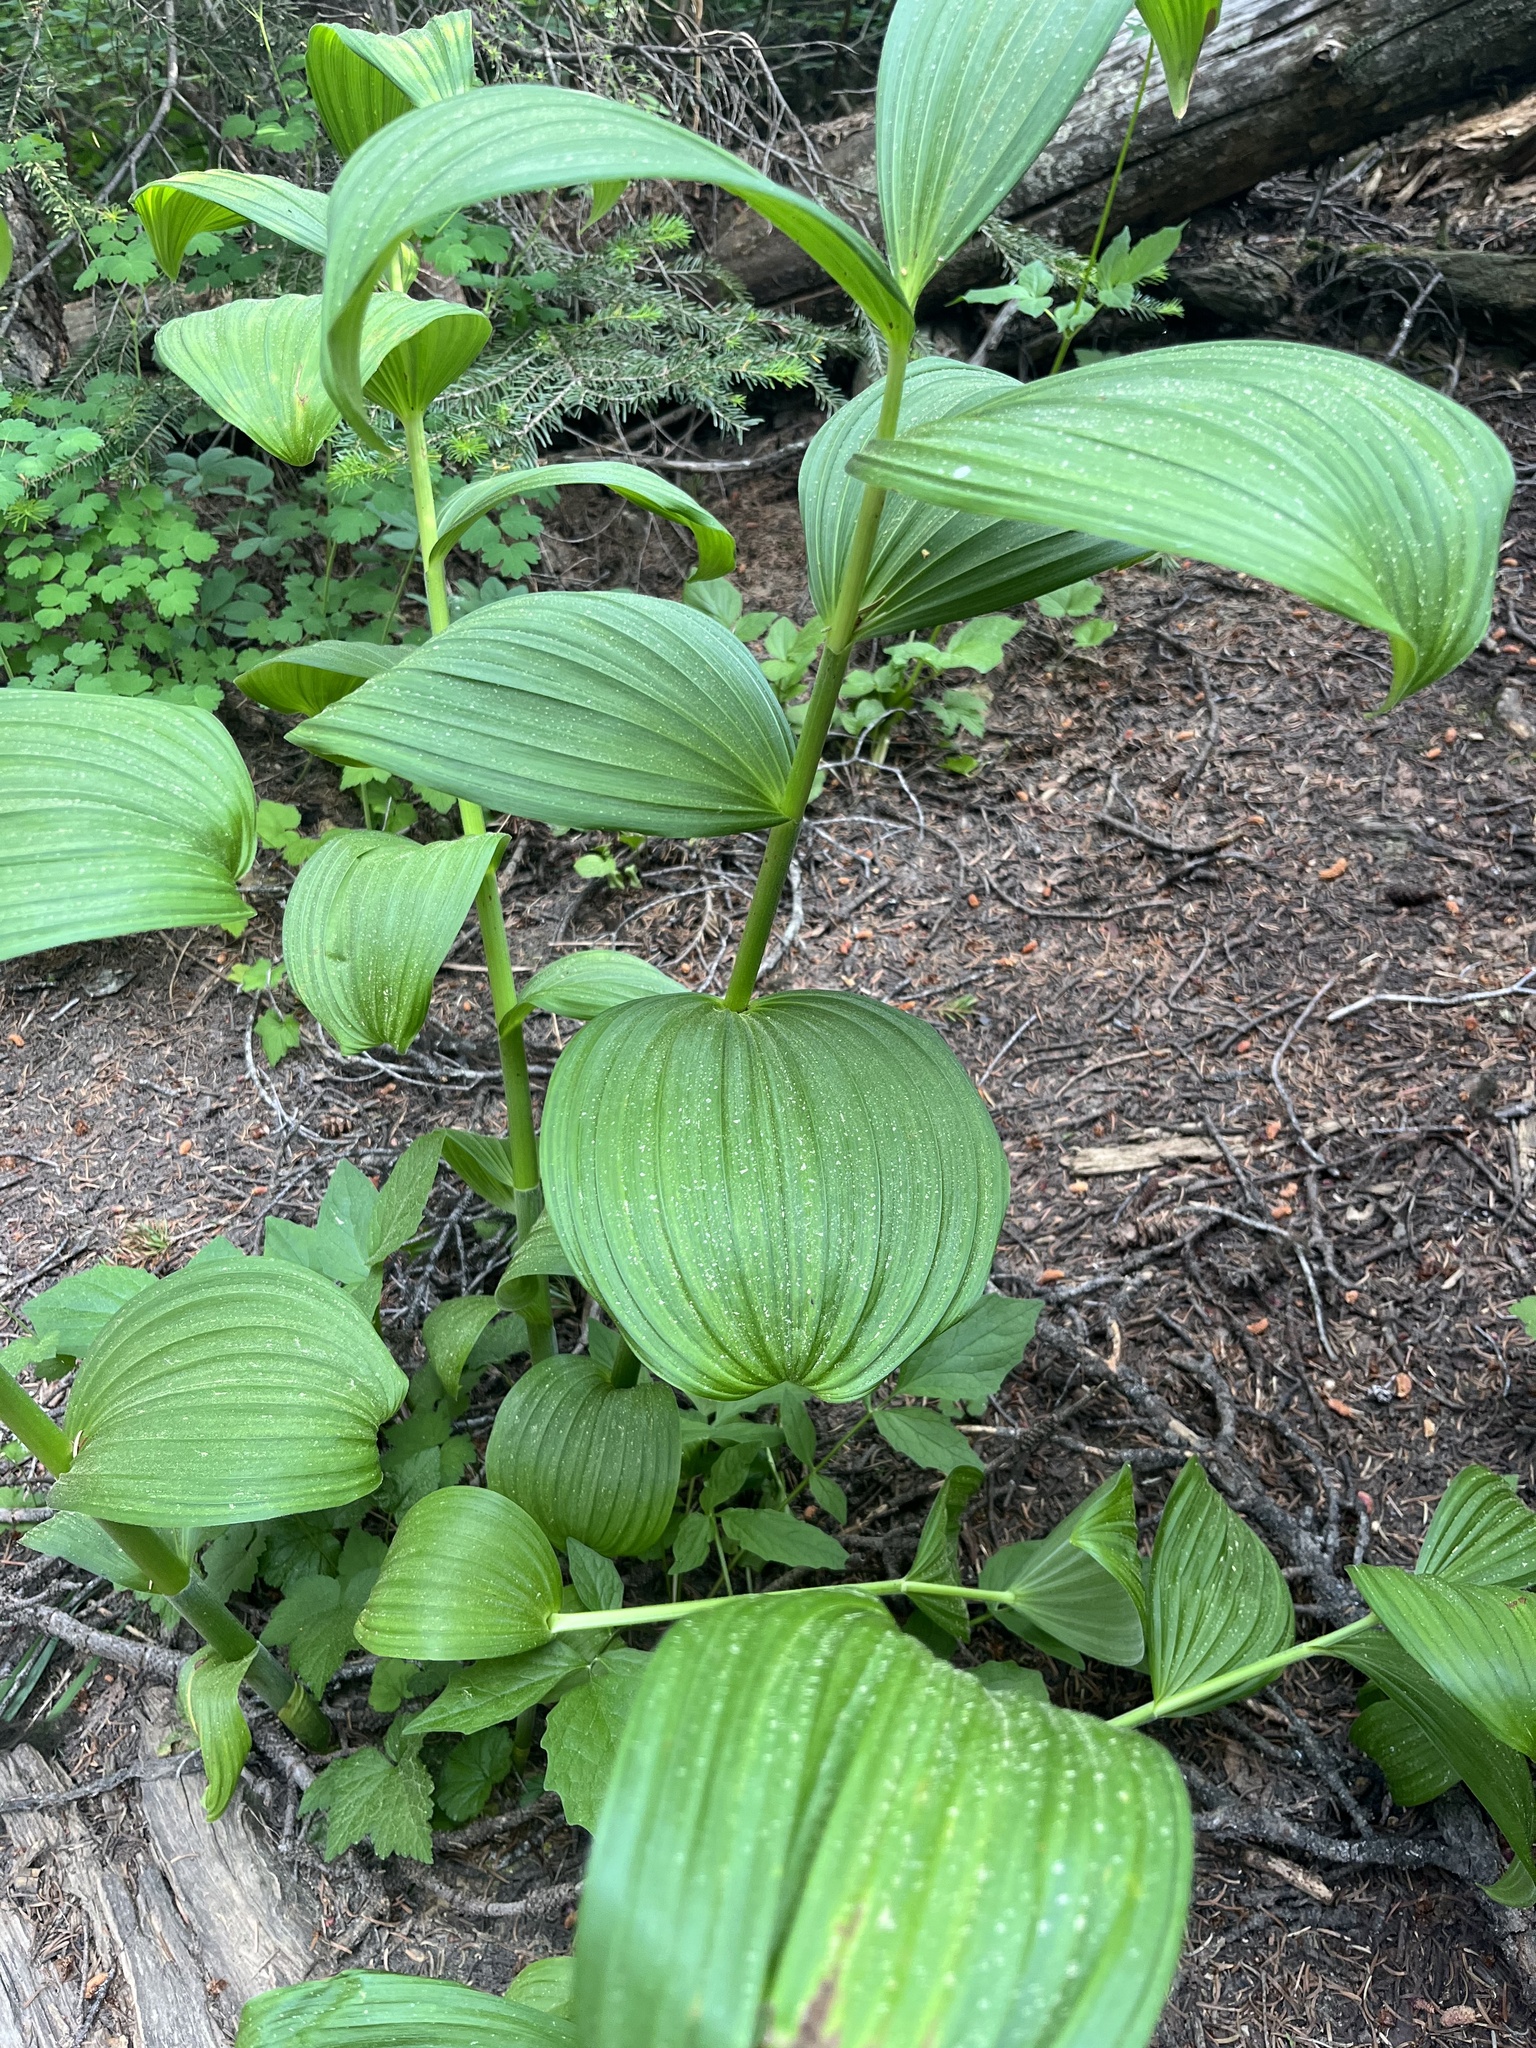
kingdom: Plantae
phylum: Tracheophyta
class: Liliopsida
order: Liliales
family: Melanthiaceae
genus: Veratrum
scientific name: Veratrum viride
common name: American false hellebore
